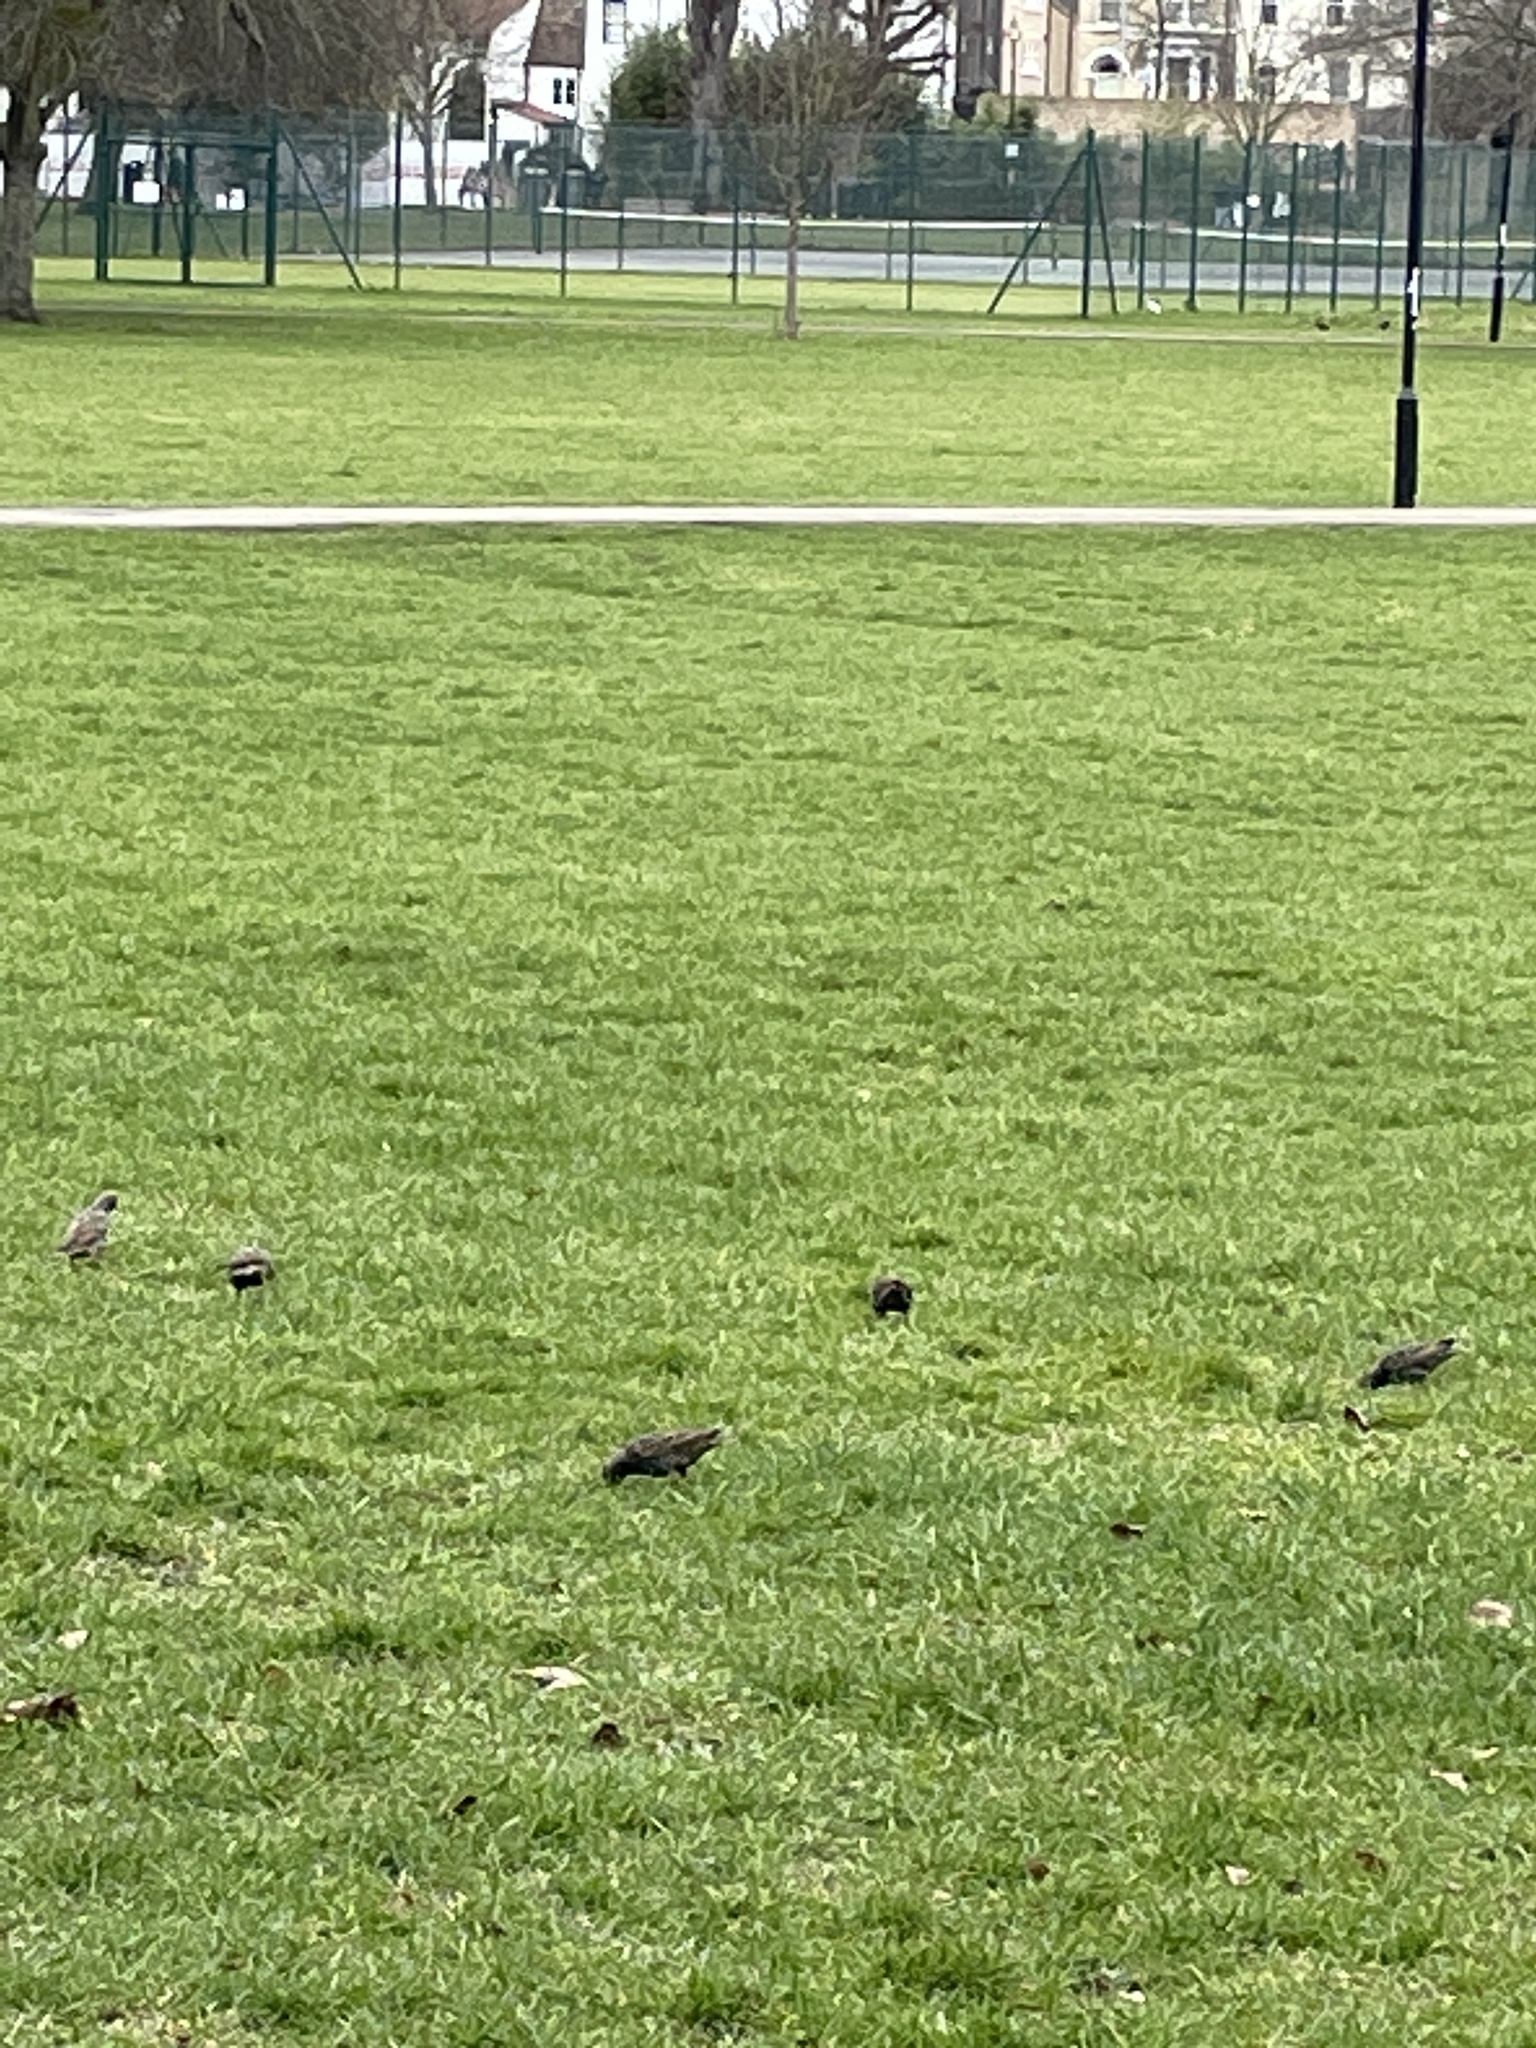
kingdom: Animalia
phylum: Chordata
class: Aves
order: Passeriformes
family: Sturnidae
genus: Sturnus
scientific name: Sturnus vulgaris
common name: Common starling
